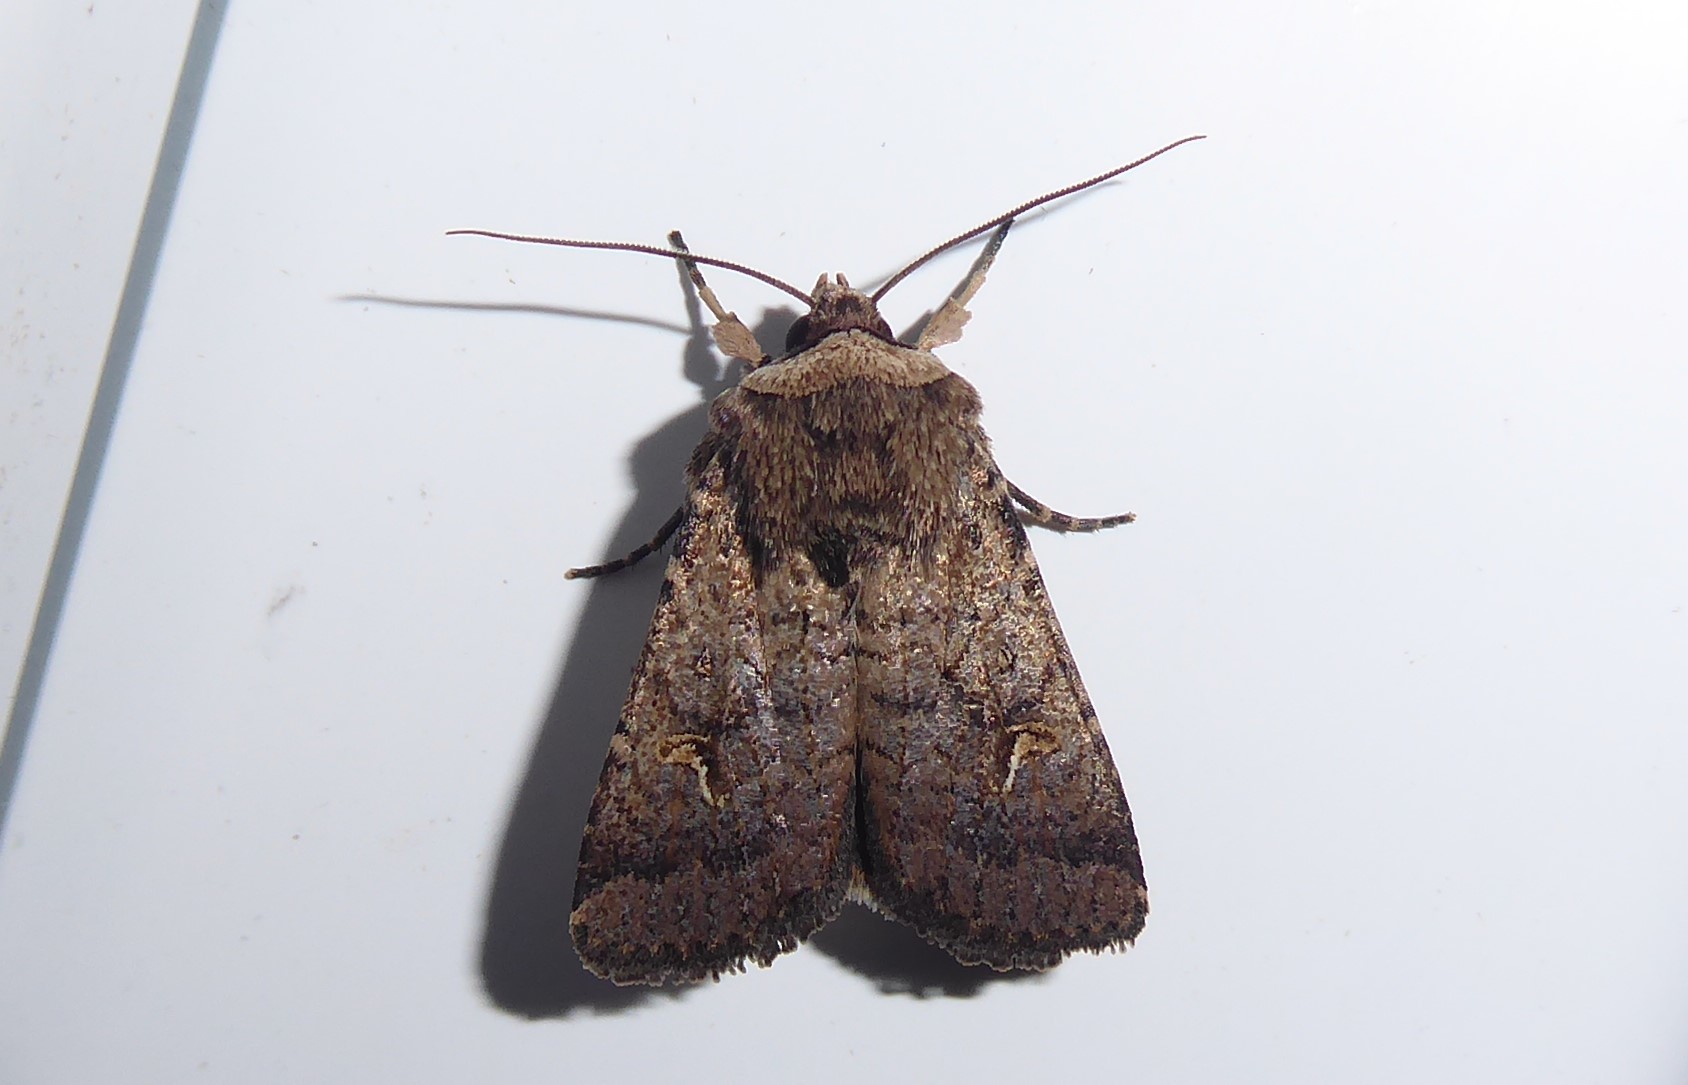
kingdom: Animalia
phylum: Arthropoda
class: Insecta
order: Lepidoptera
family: Noctuidae
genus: Proteuxoa
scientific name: Proteuxoa tetronycha
